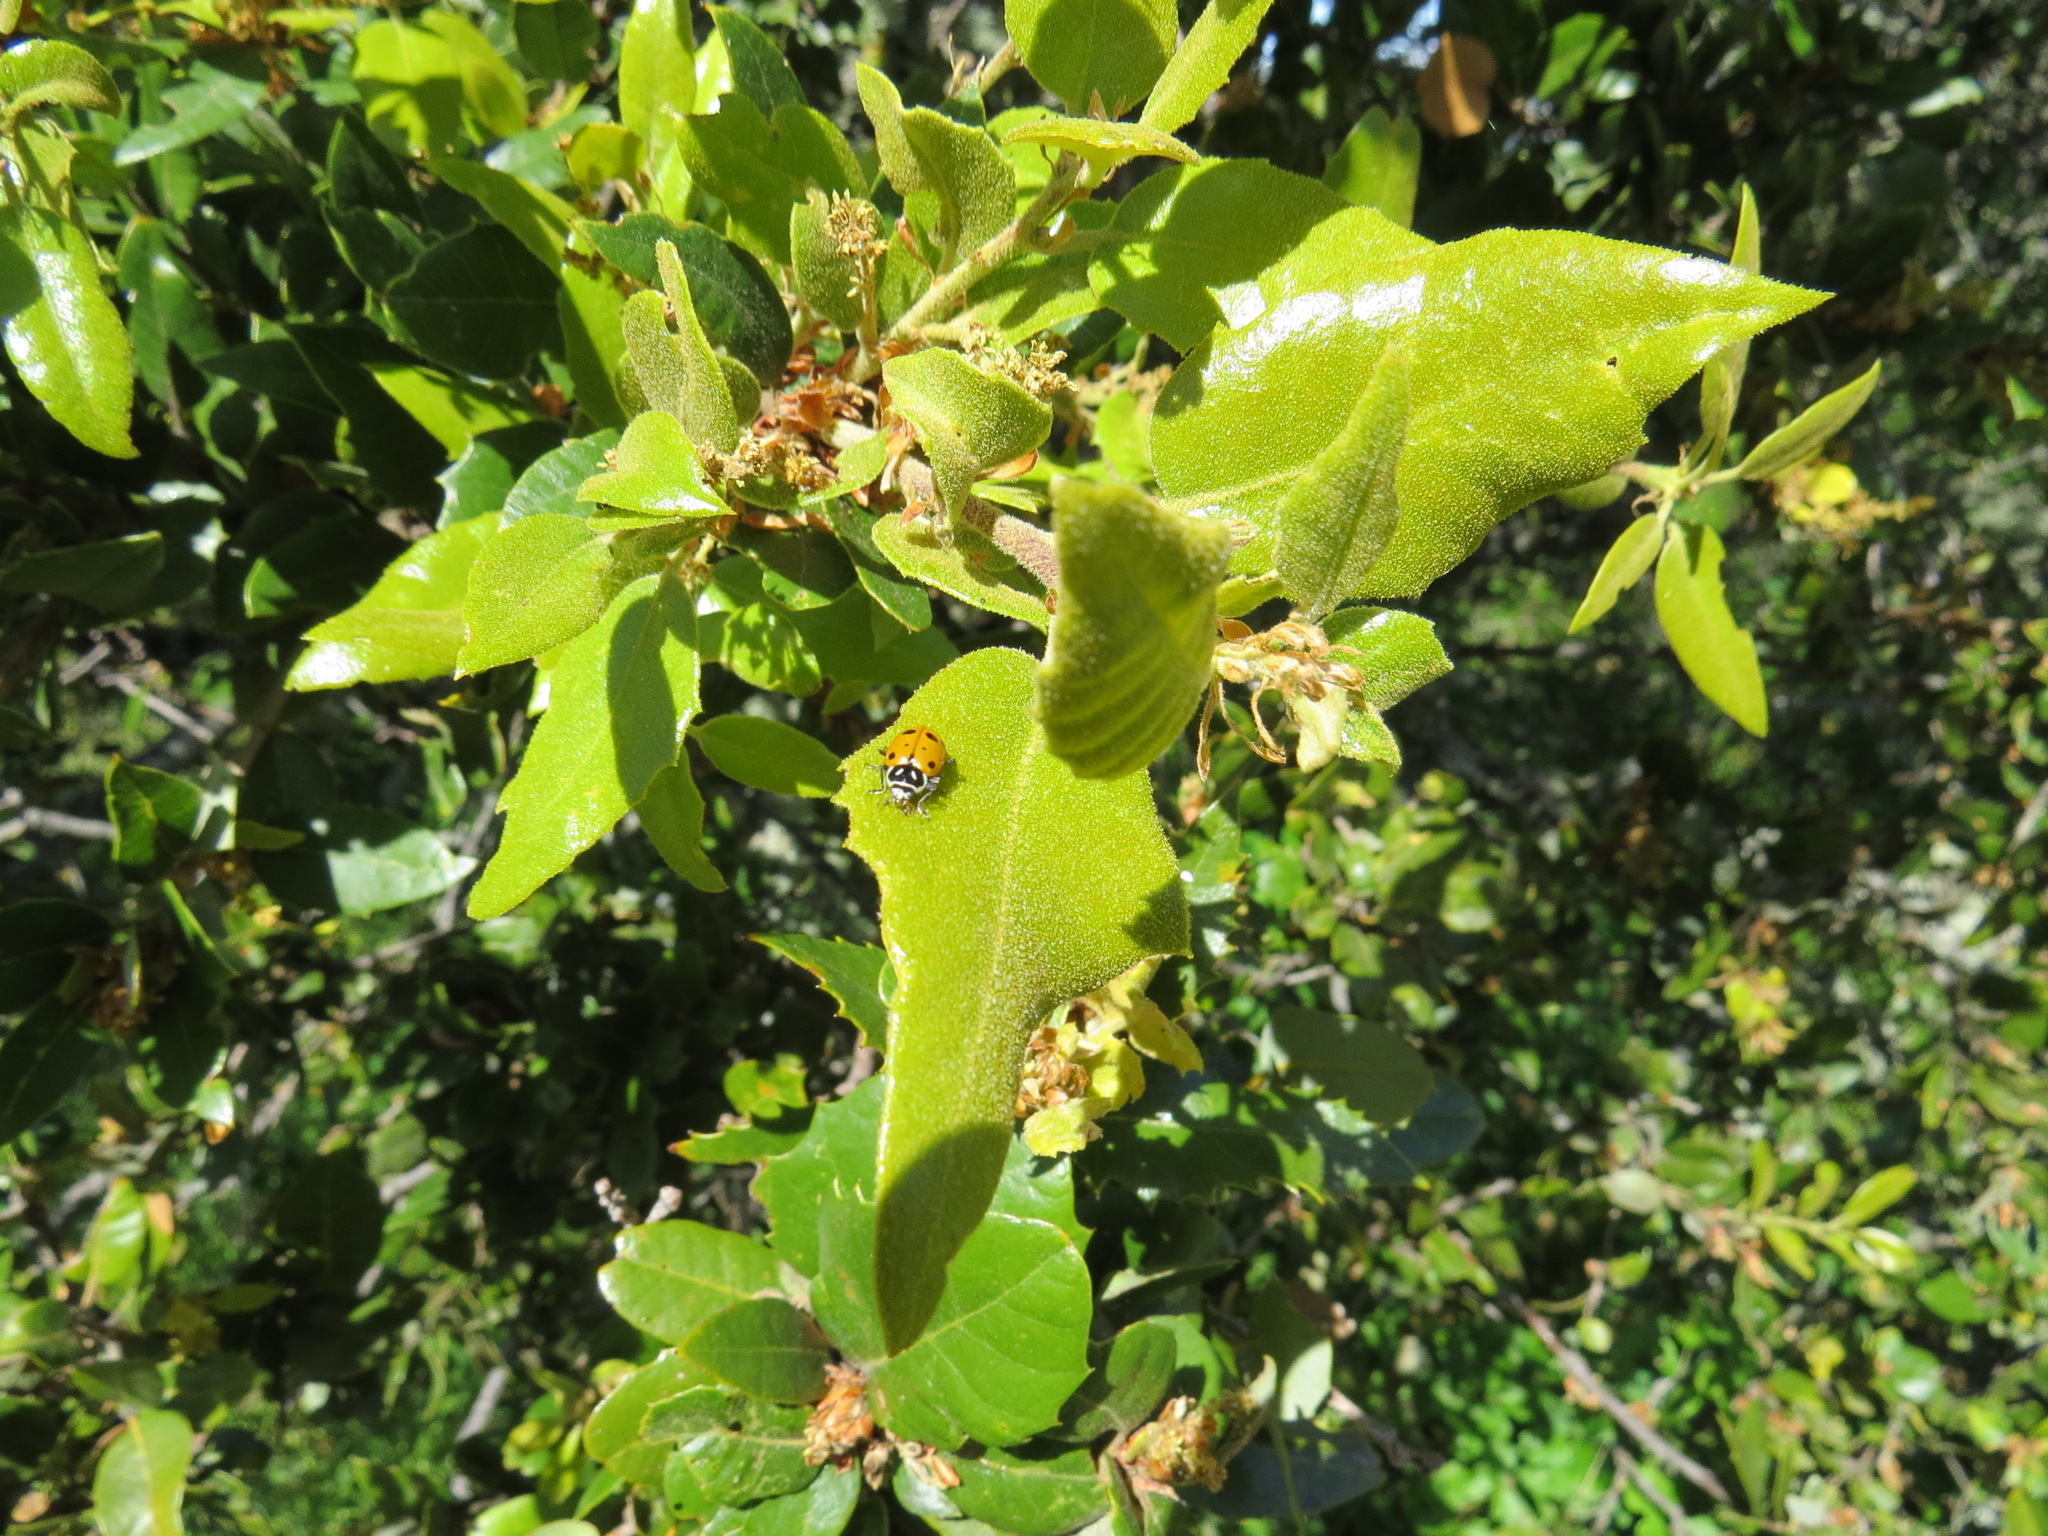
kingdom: Animalia
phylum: Arthropoda
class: Insecta
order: Coleoptera
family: Coccinellidae
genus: Hippodamia
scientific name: Hippodamia convergens
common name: Convergent lady beetle
